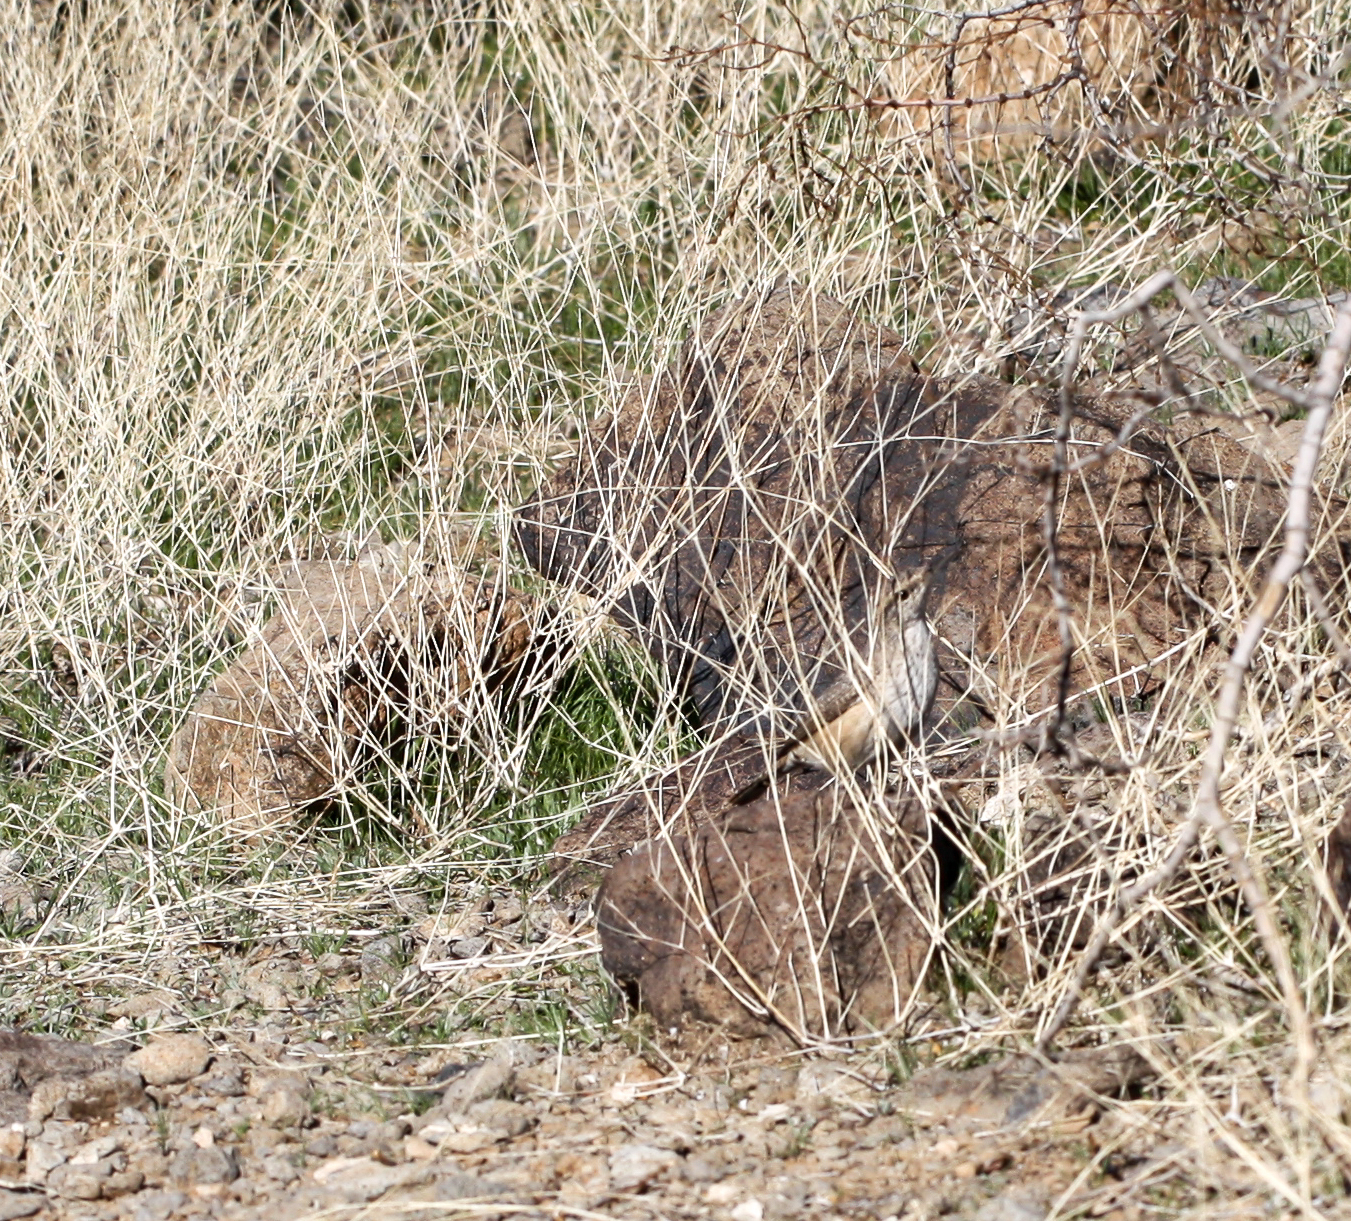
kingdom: Animalia
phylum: Chordata
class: Aves
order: Passeriformes
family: Troglodytidae
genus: Salpinctes
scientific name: Salpinctes obsoletus
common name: Rock wren
